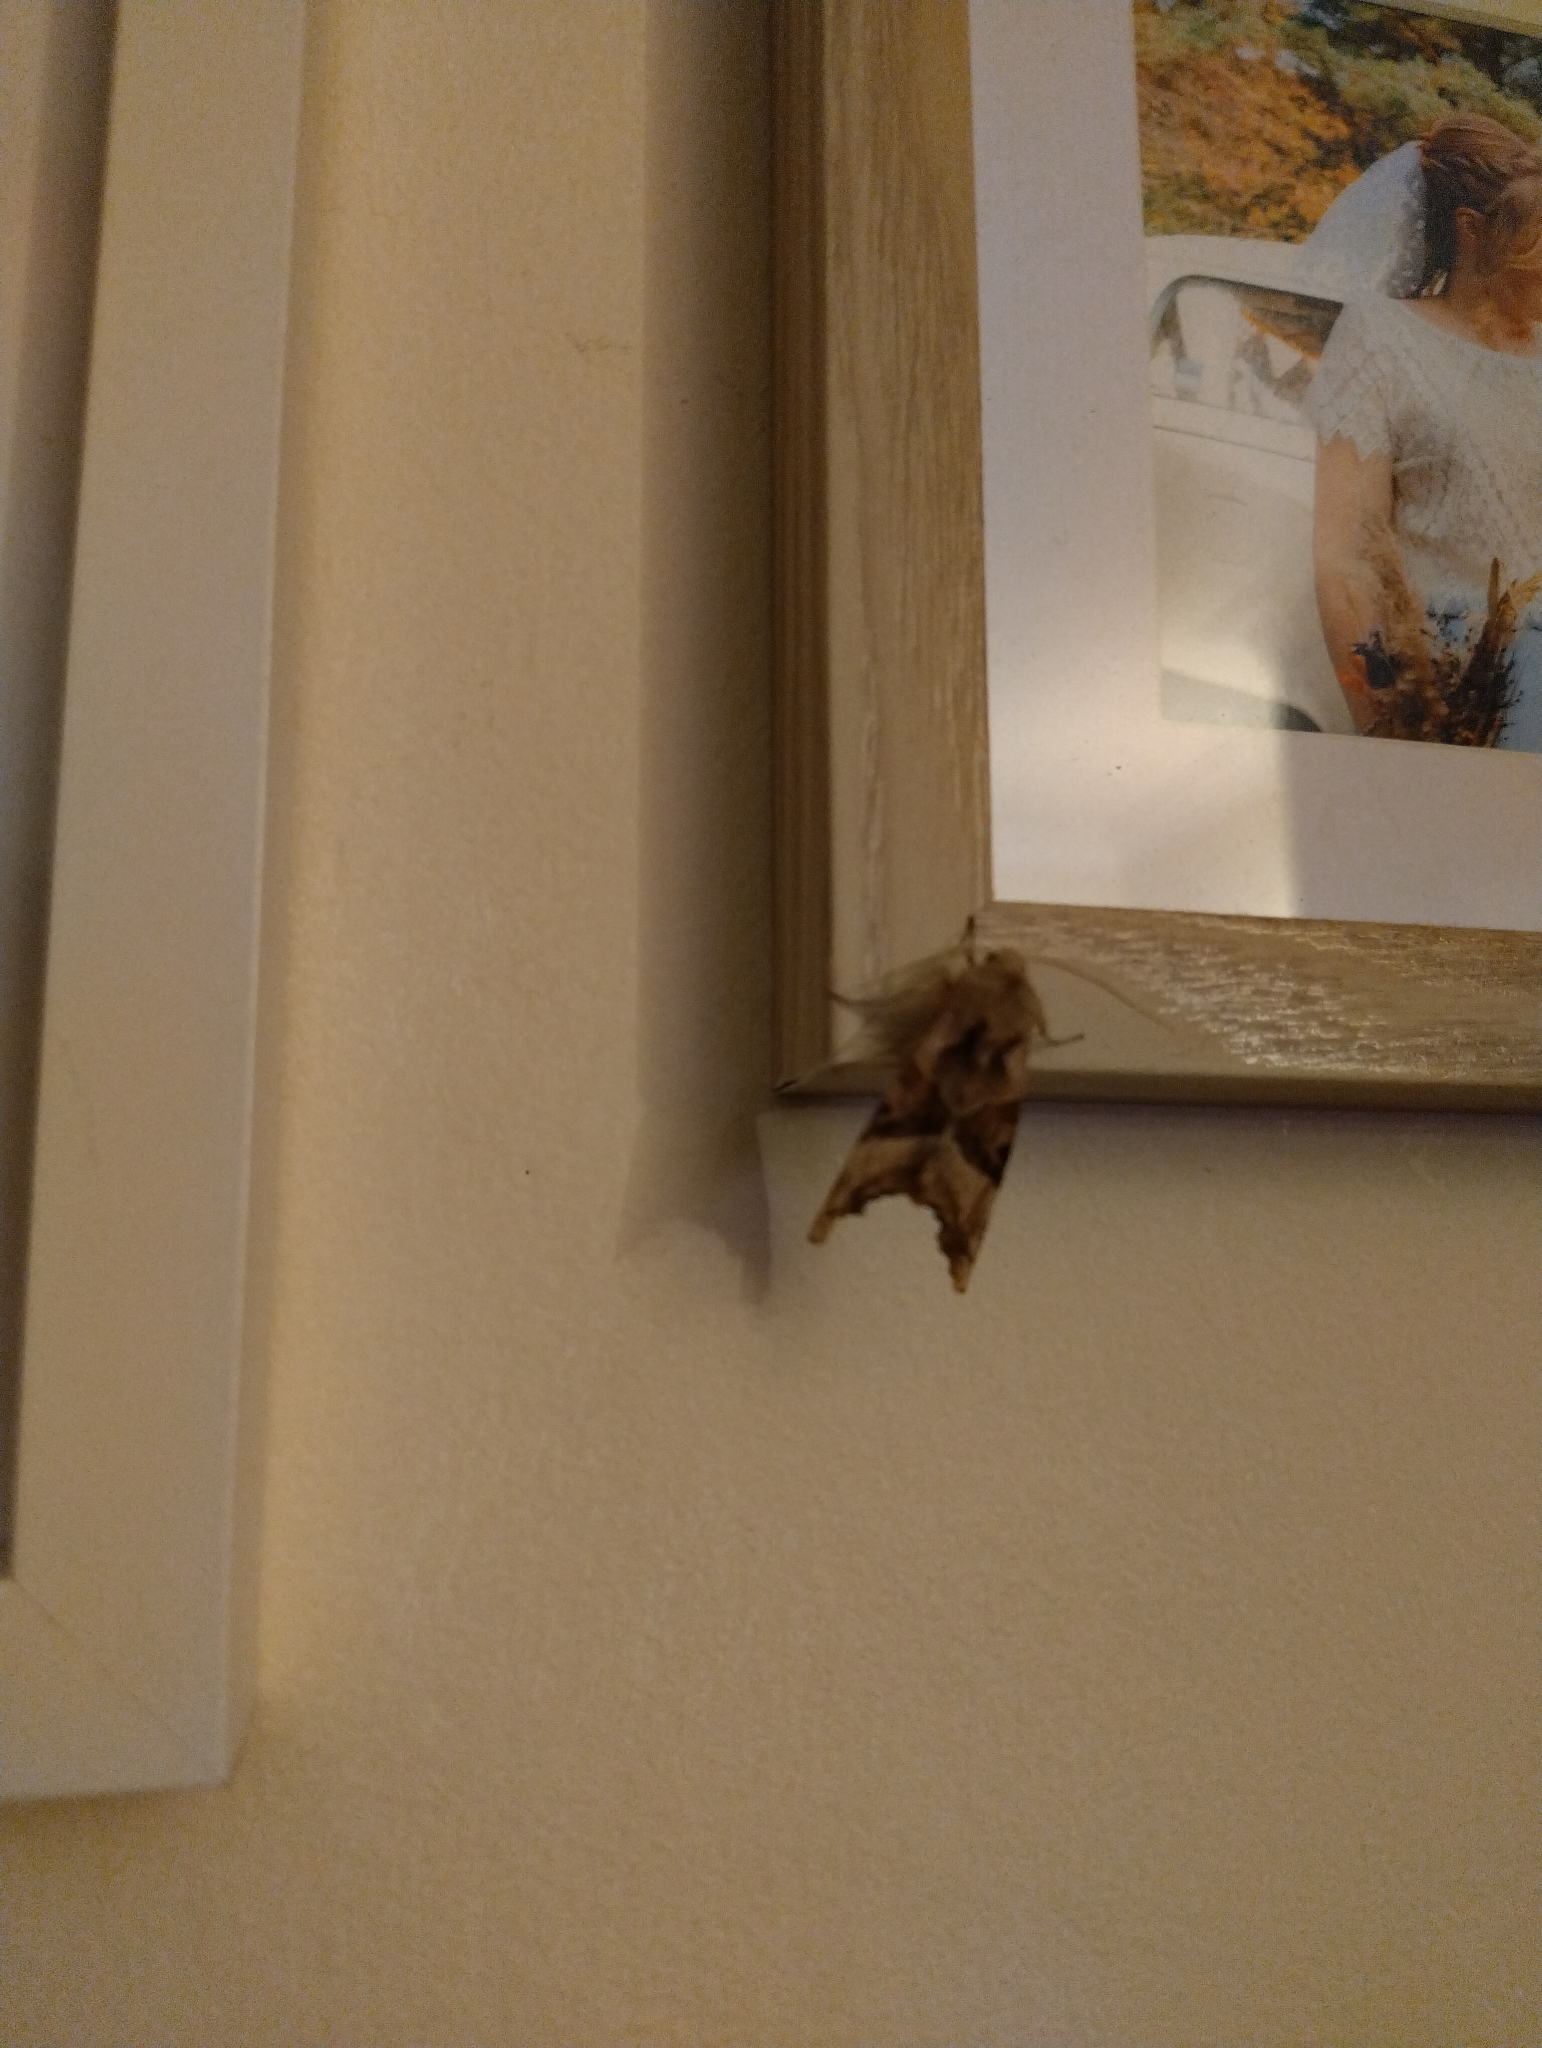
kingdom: Animalia
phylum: Arthropoda
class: Insecta
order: Lepidoptera
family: Noctuidae
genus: Phlogophora
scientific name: Phlogophora meticulosa
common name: Angle shades
